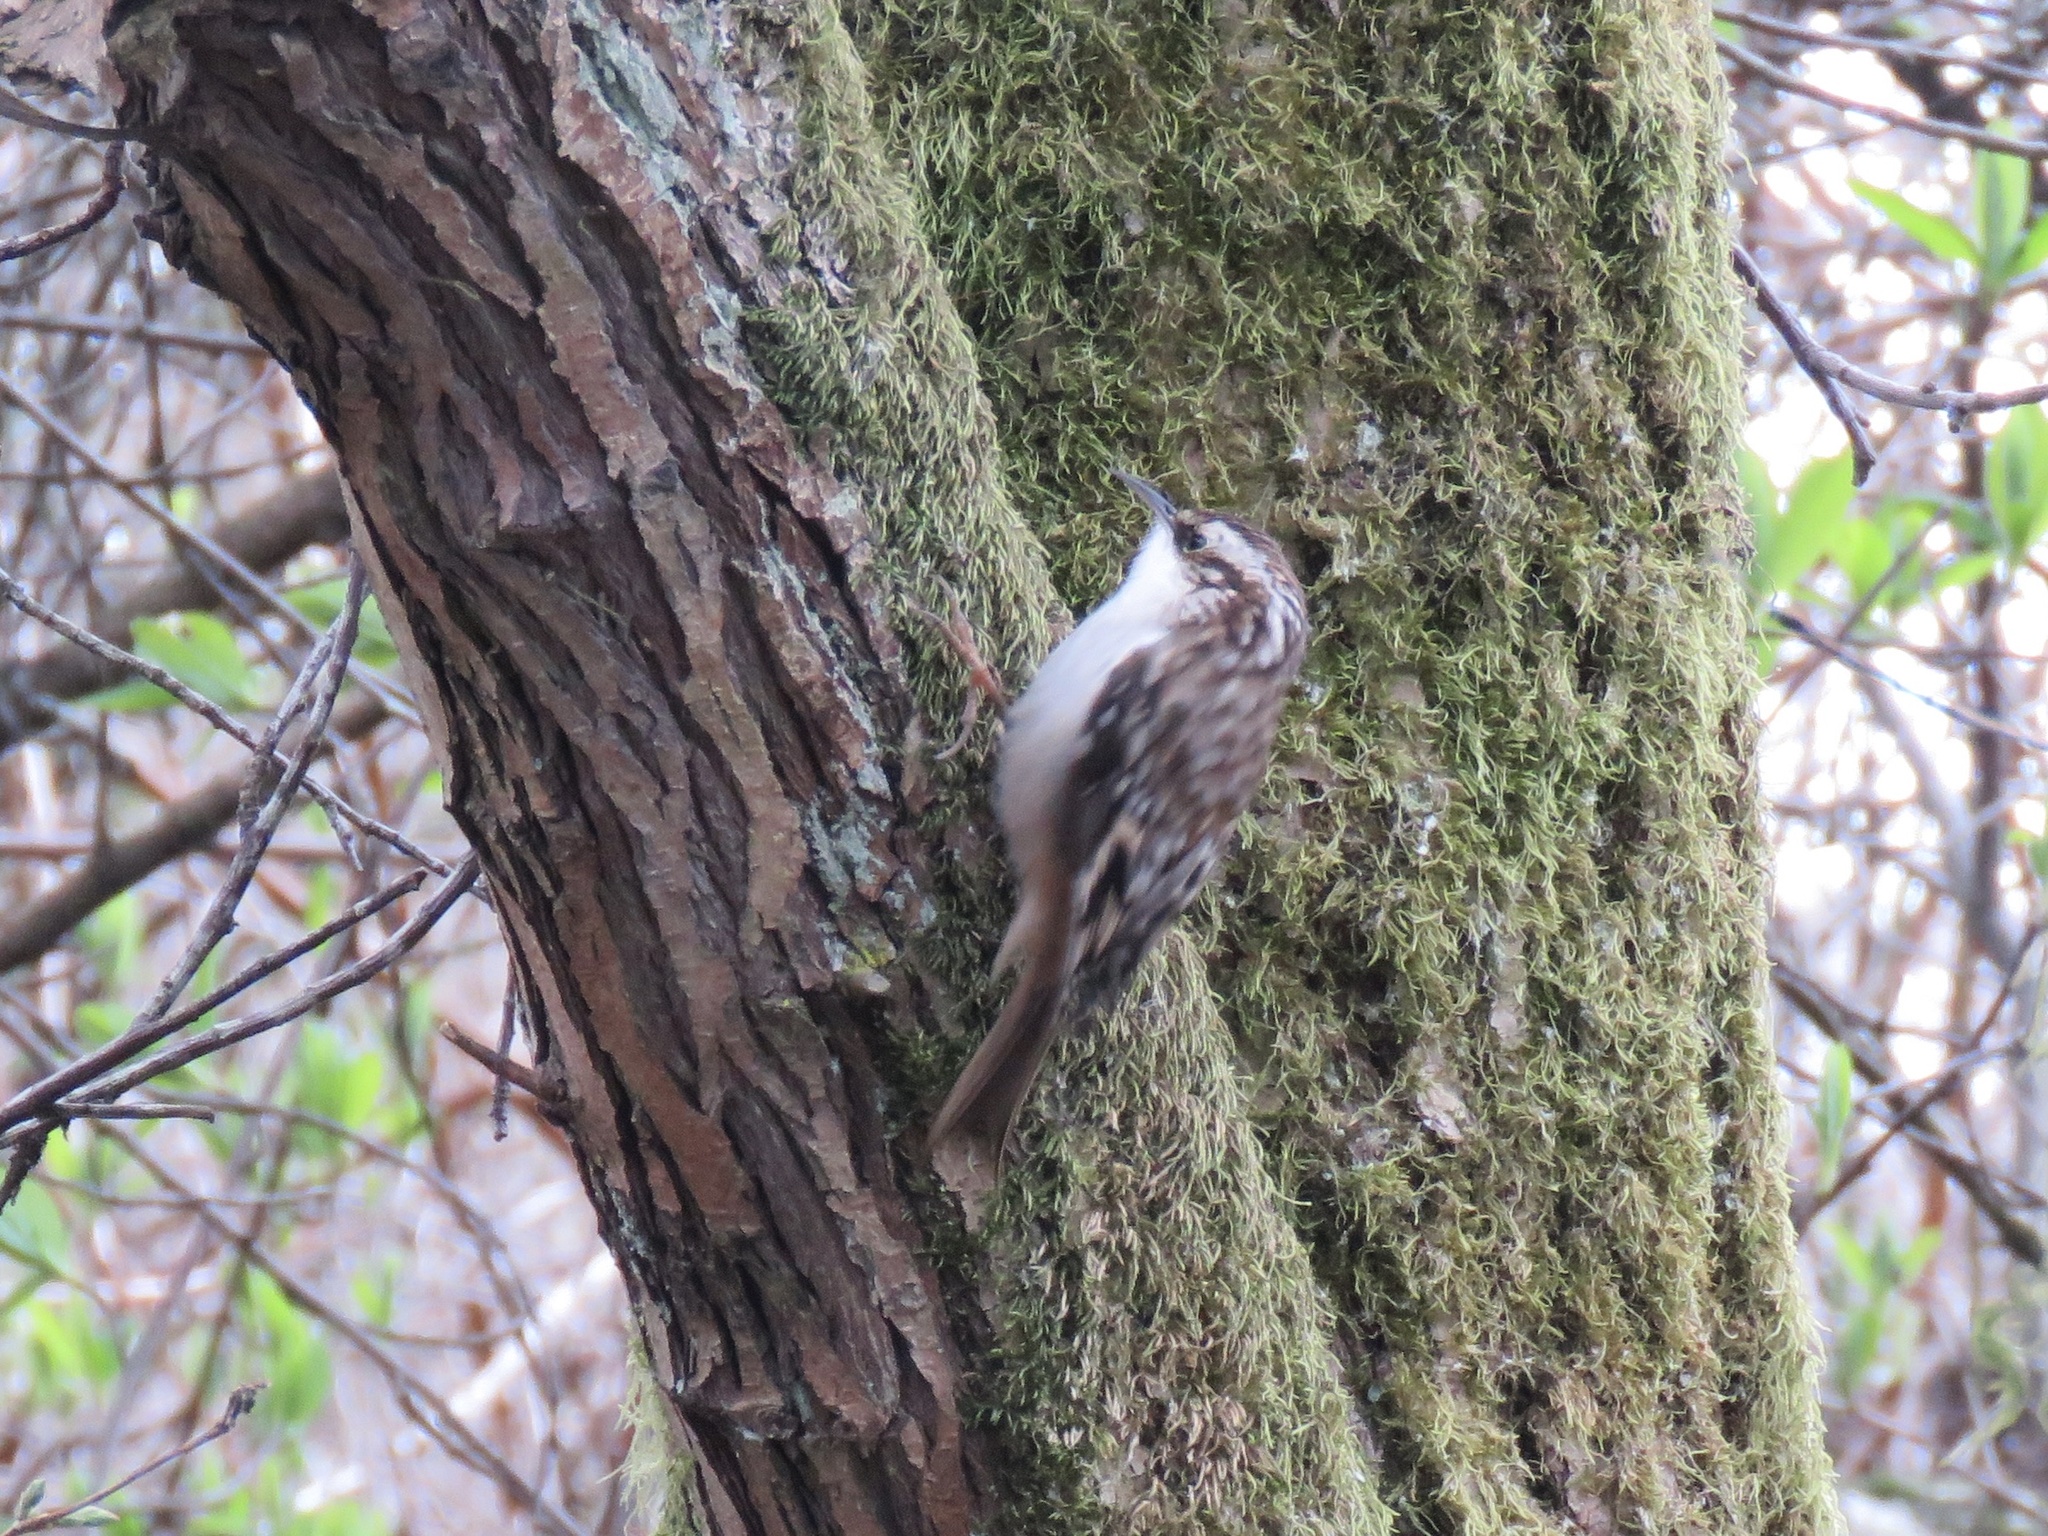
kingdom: Animalia
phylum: Chordata
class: Aves
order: Passeriformes
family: Certhiidae
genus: Certhia
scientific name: Certhia americana
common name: Brown creeper
